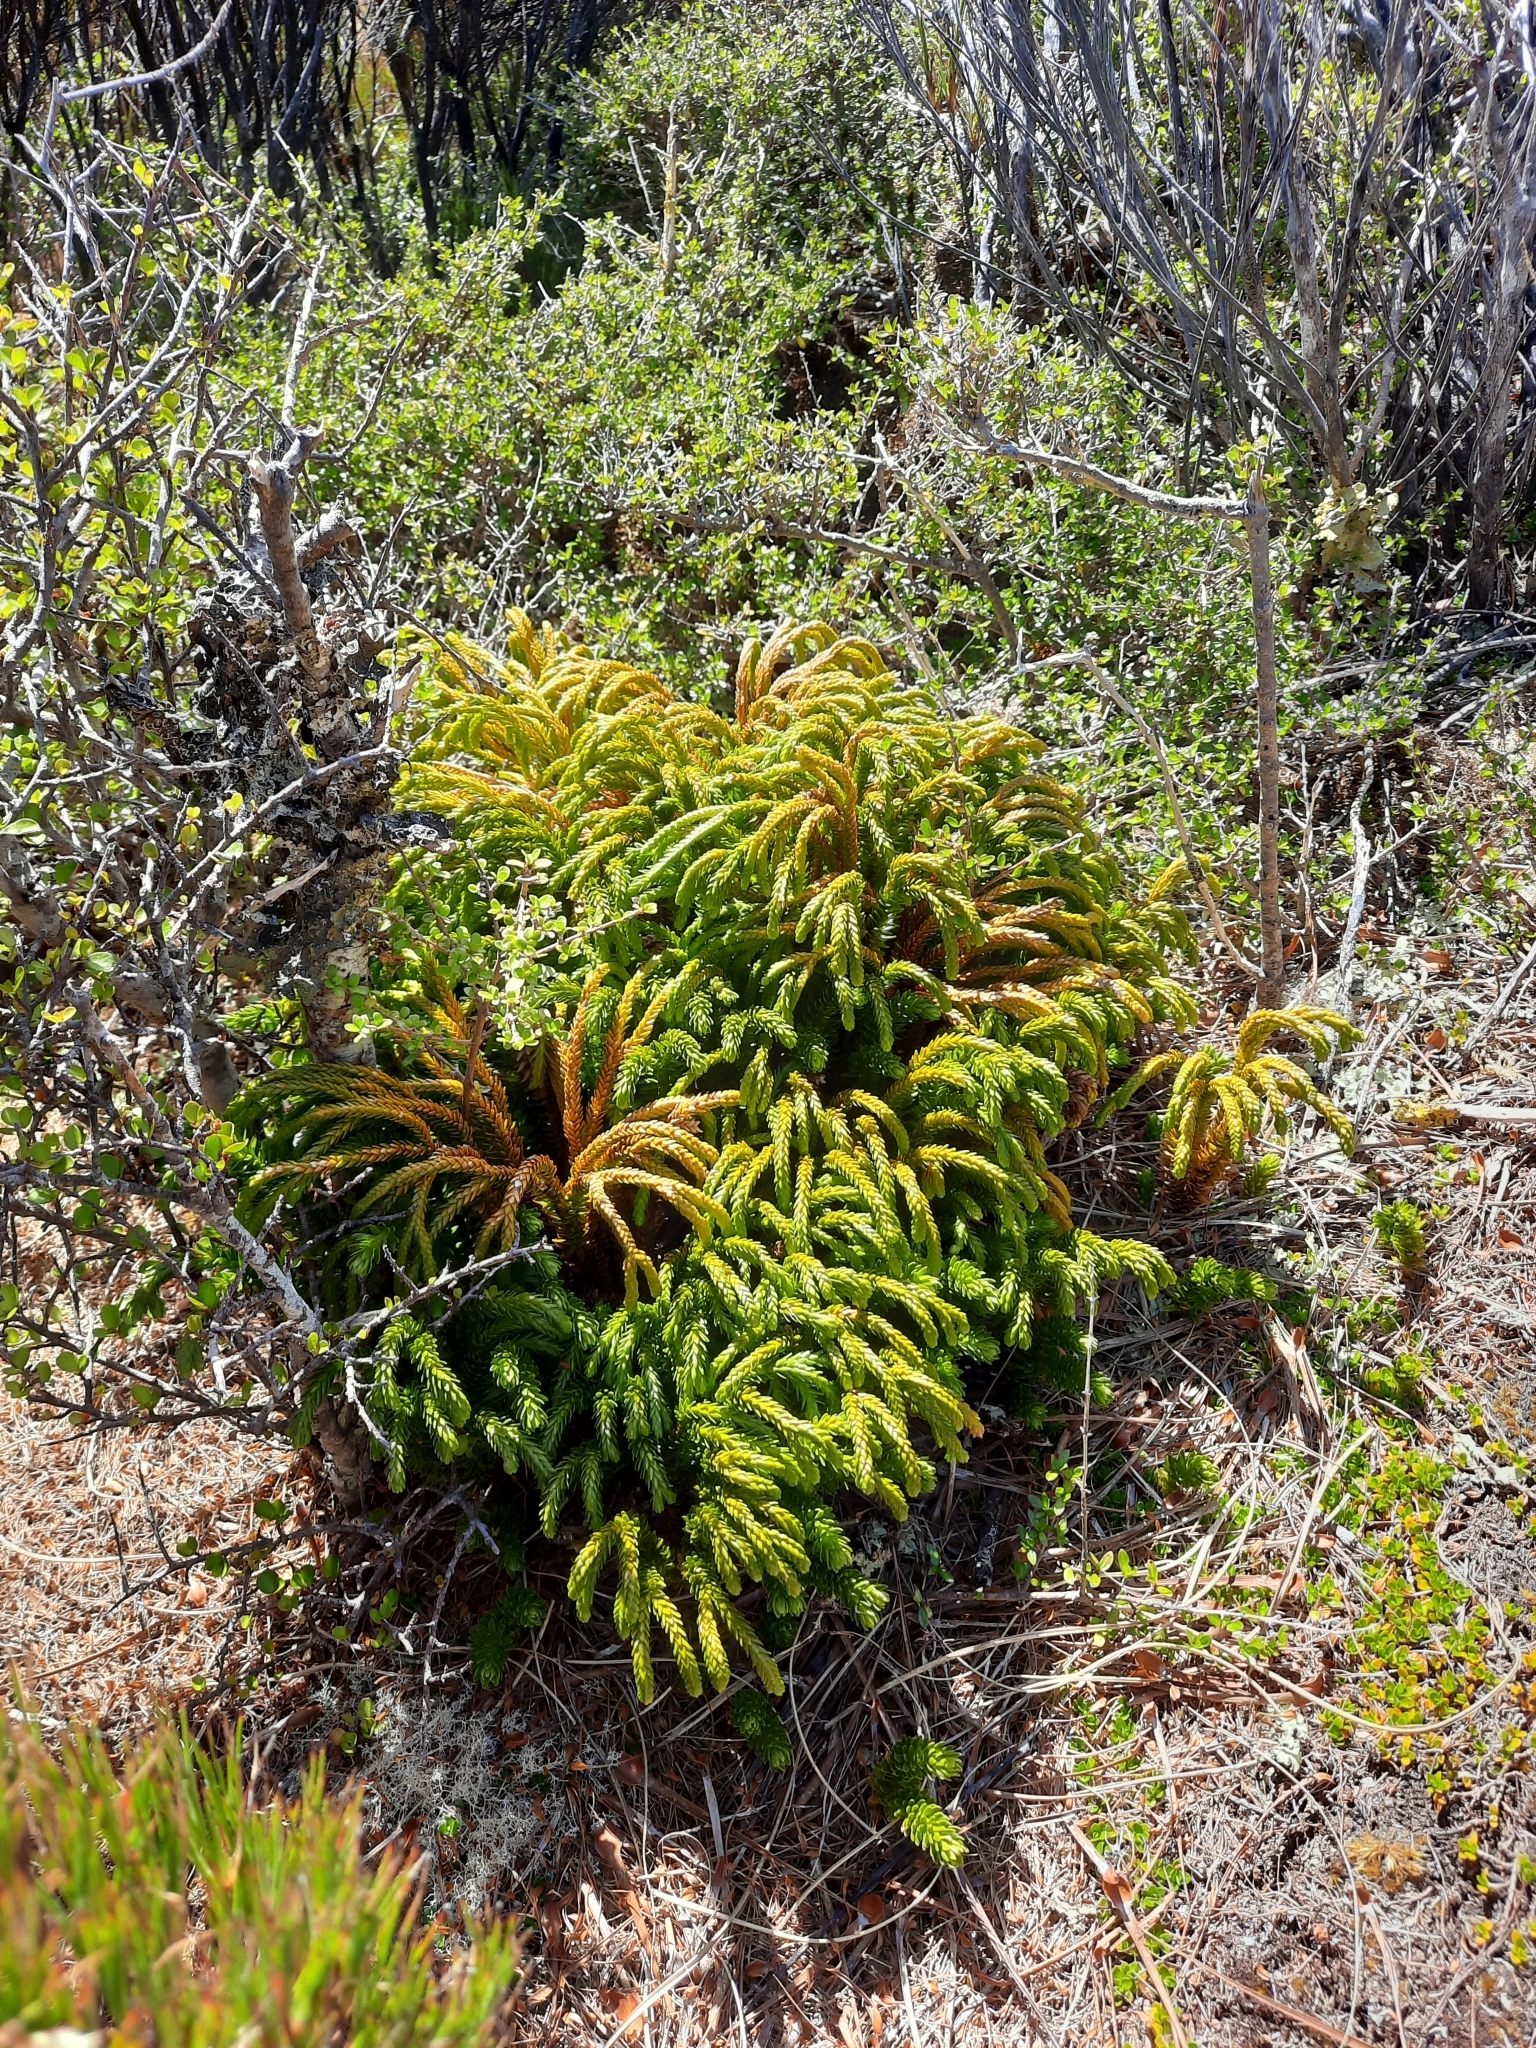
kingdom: Plantae
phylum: Tracheophyta
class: Lycopodiopsida
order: Lycopodiales
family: Lycopodiaceae
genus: Phlegmariurus
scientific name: Phlegmariurus varius
